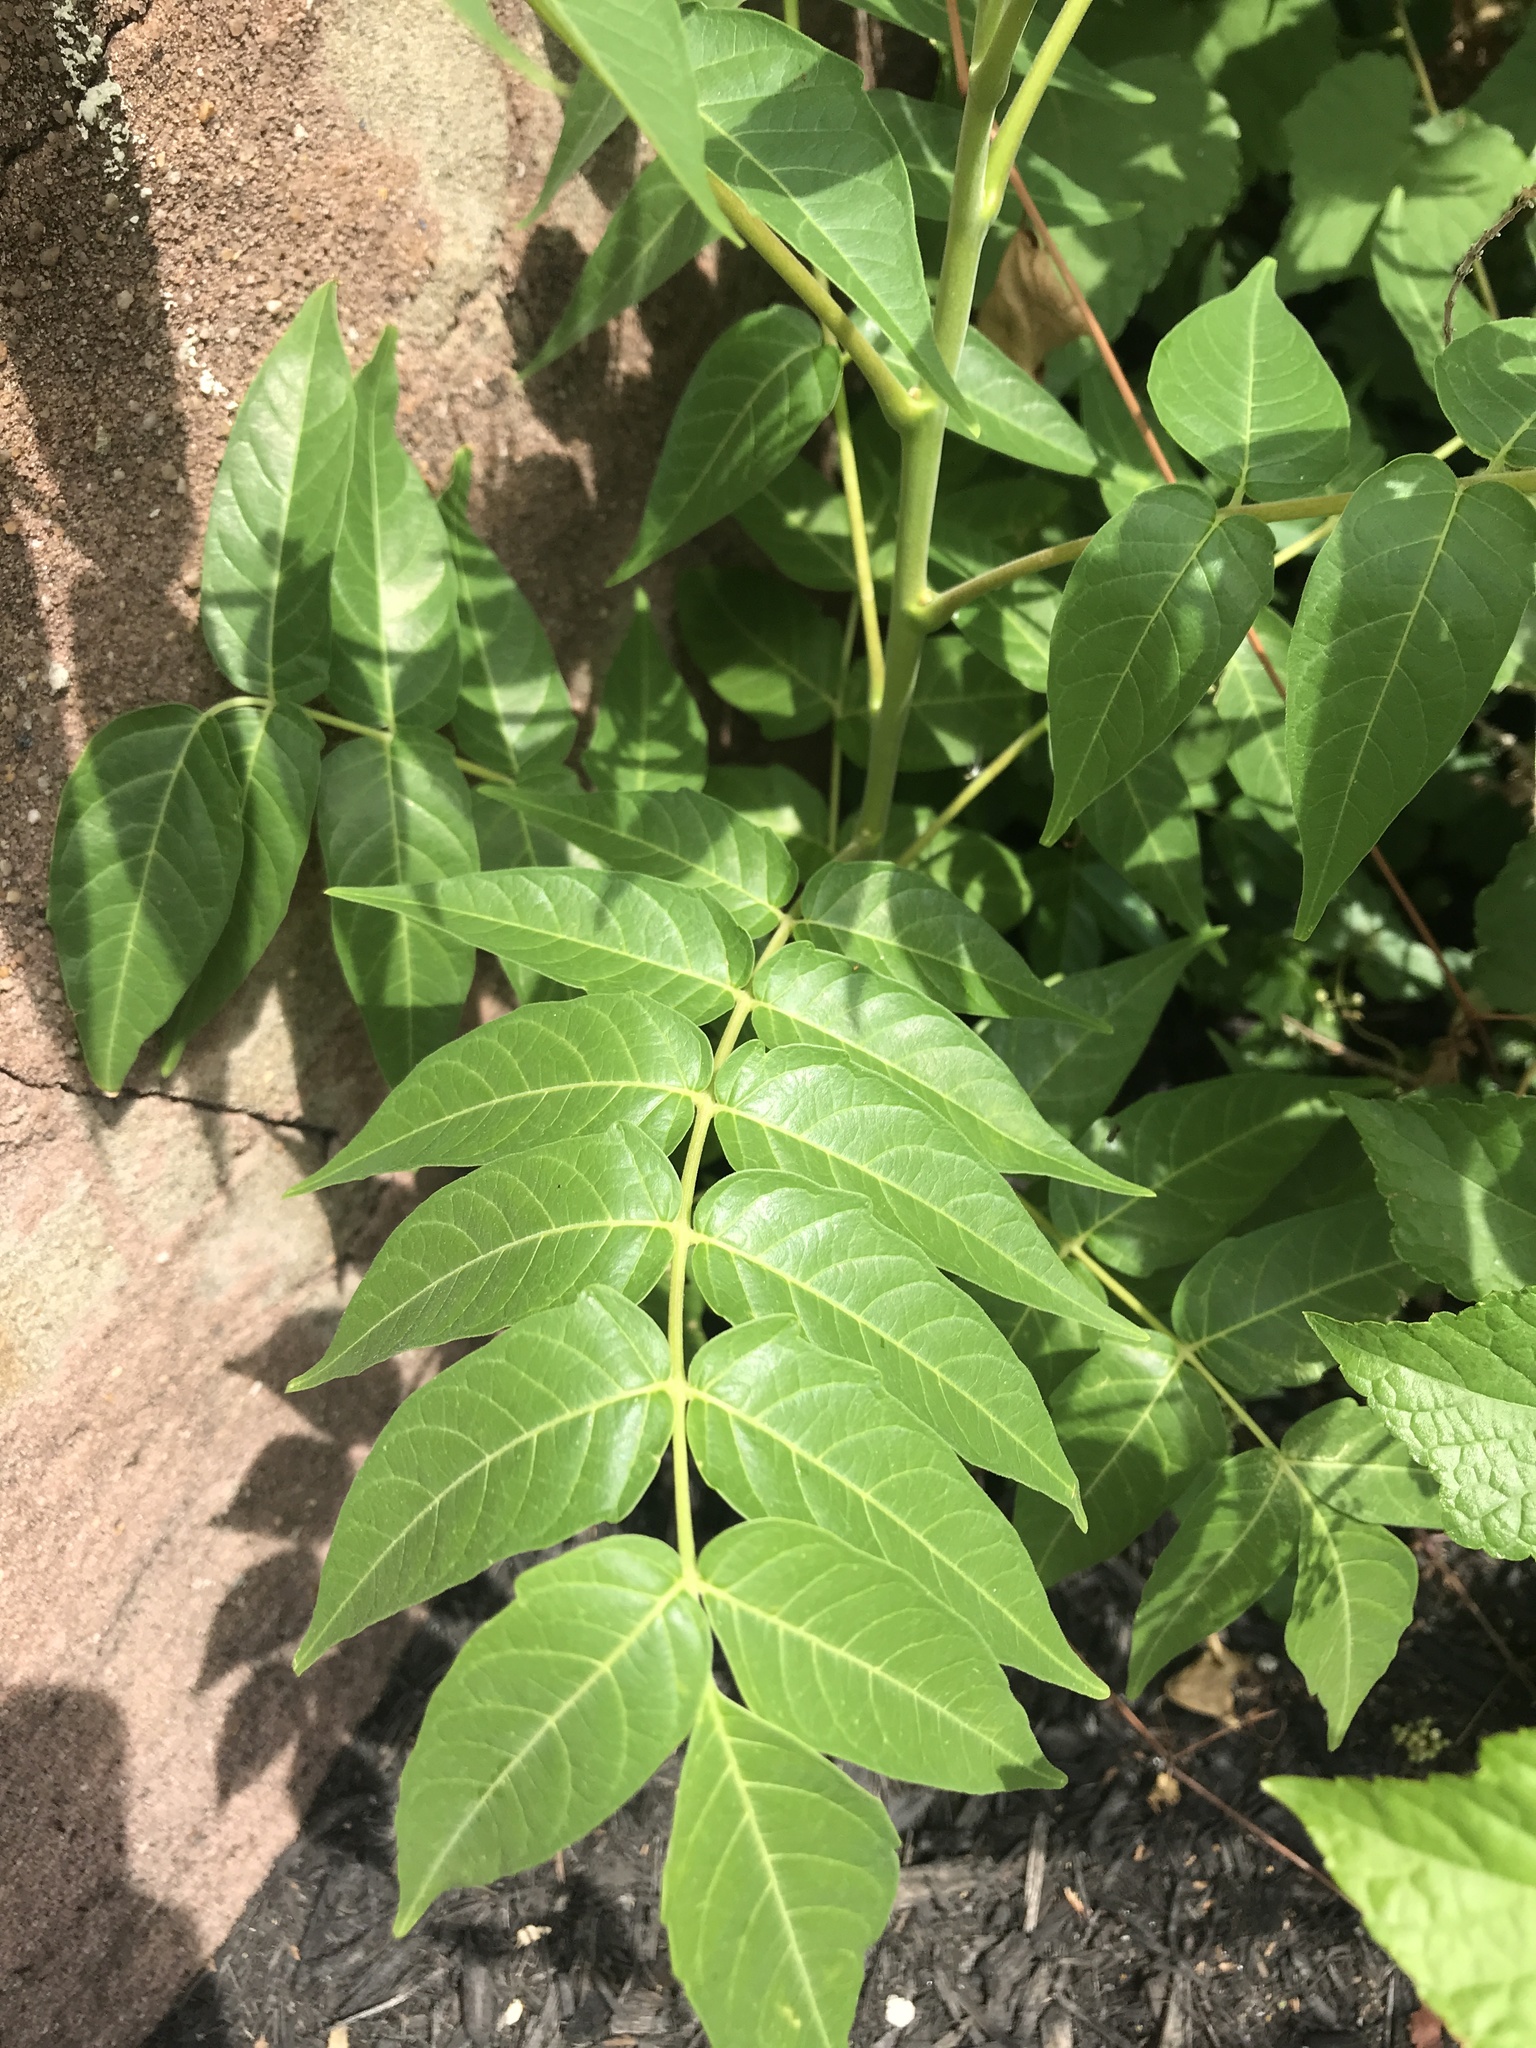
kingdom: Plantae
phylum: Tracheophyta
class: Magnoliopsida
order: Sapindales
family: Simaroubaceae
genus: Ailanthus
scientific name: Ailanthus altissima
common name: Tree-of-heaven
